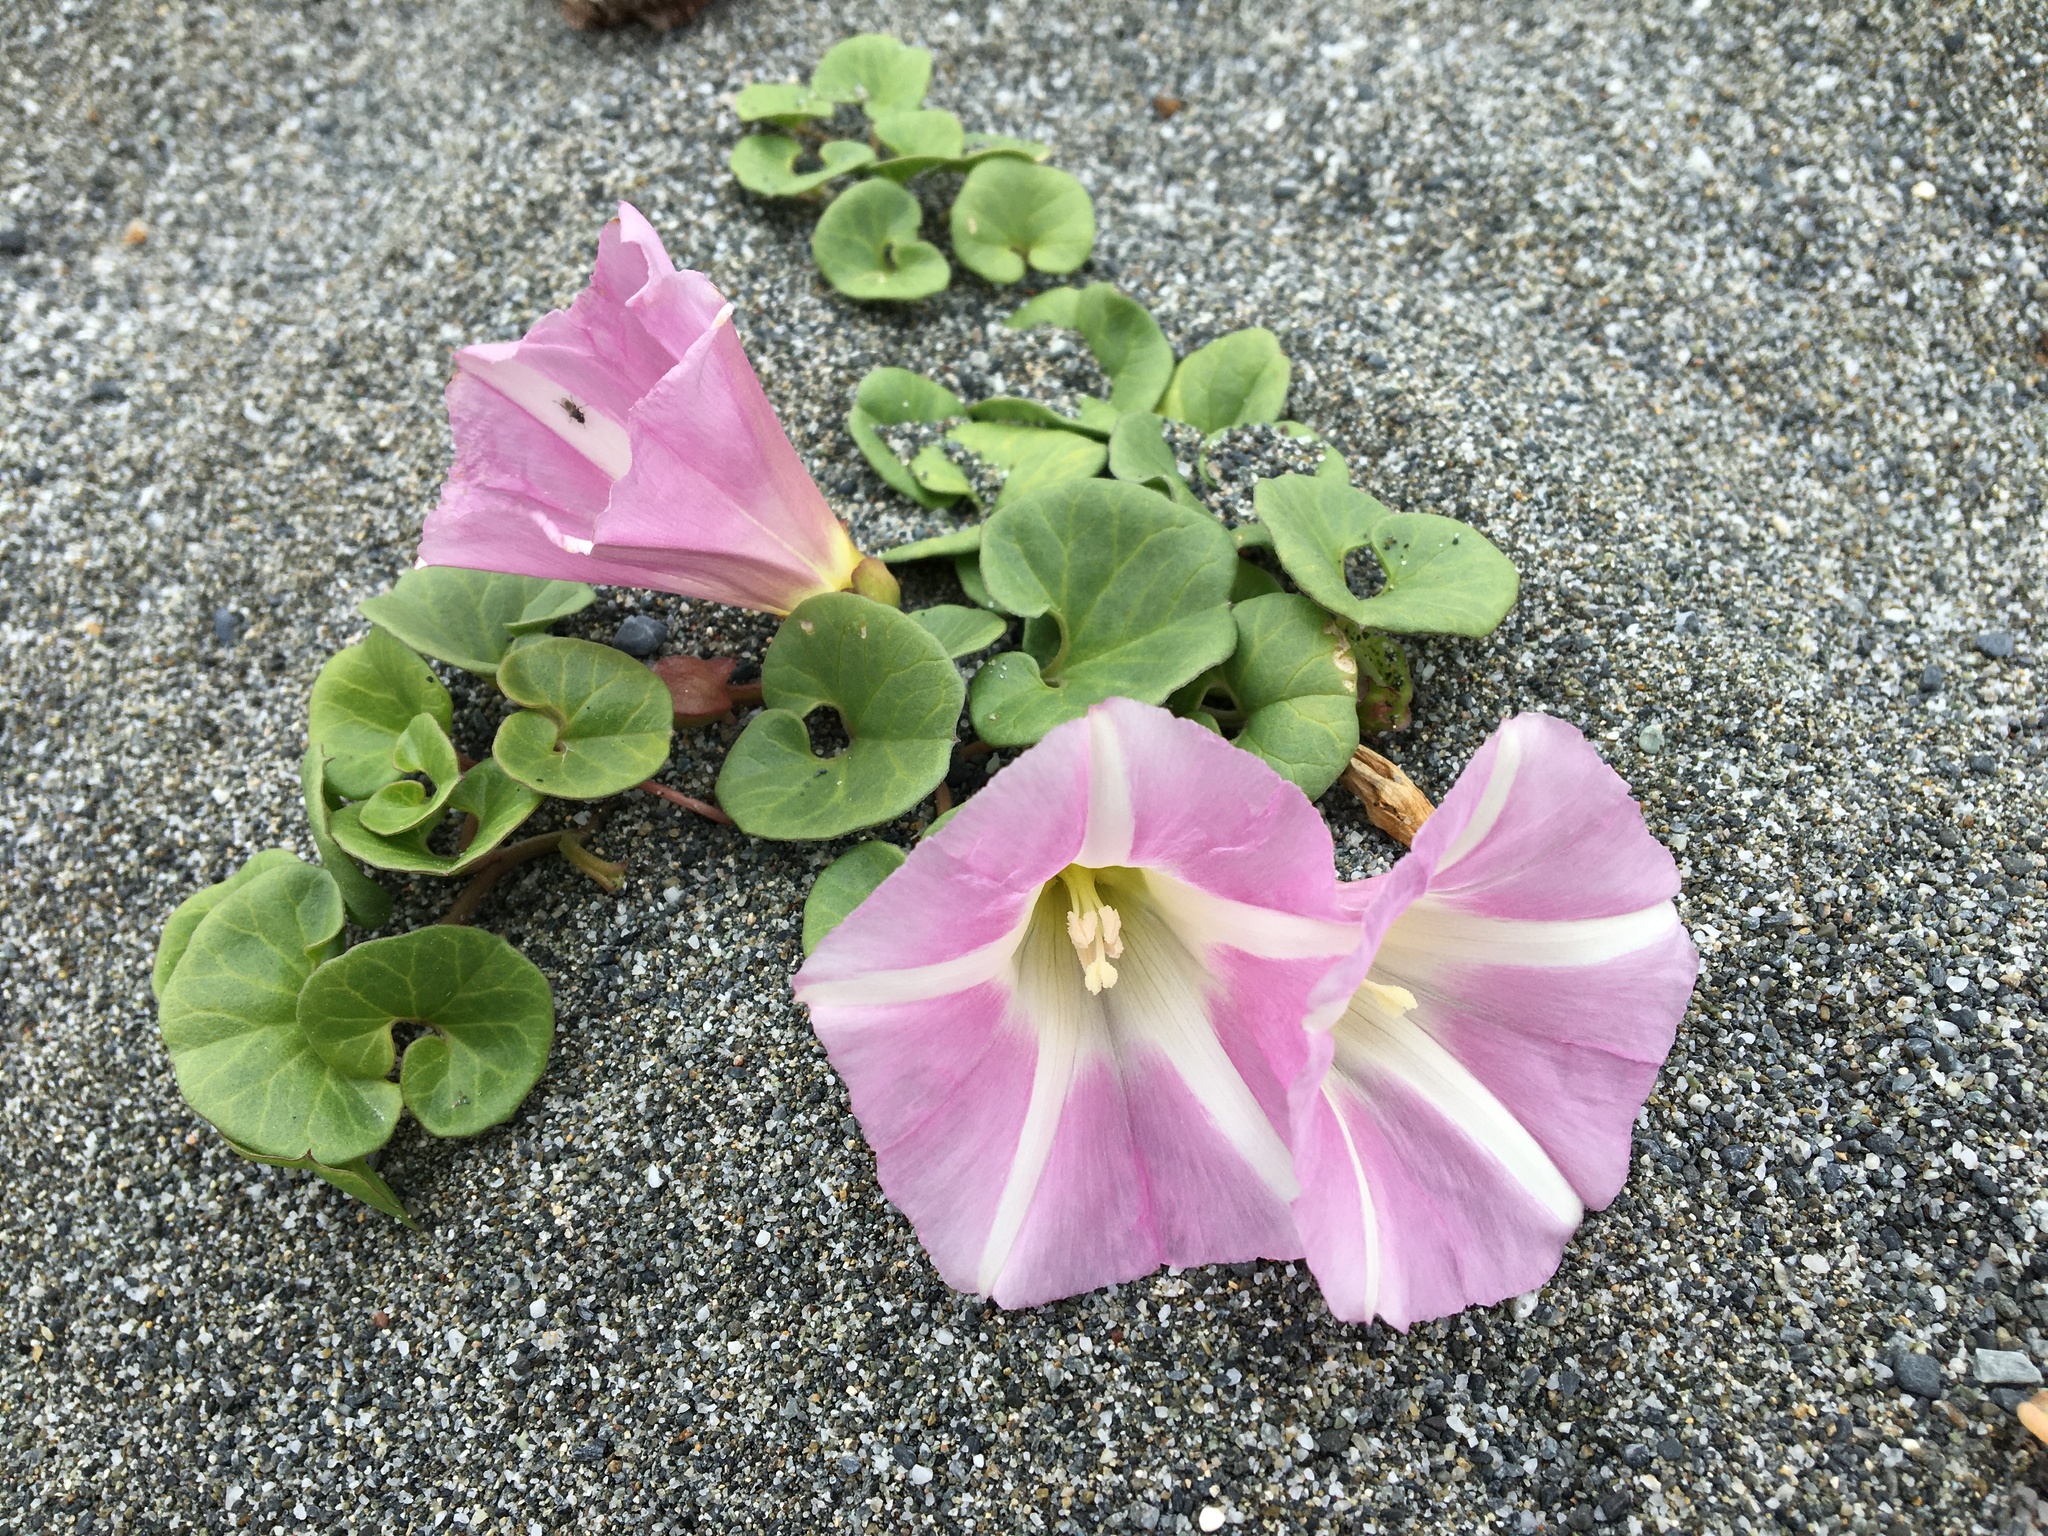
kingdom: Plantae
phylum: Tracheophyta
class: Magnoliopsida
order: Solanales
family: Convolvulaceae
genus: Calystegia
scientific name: Calystegia soldanella
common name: Sea bindweed
